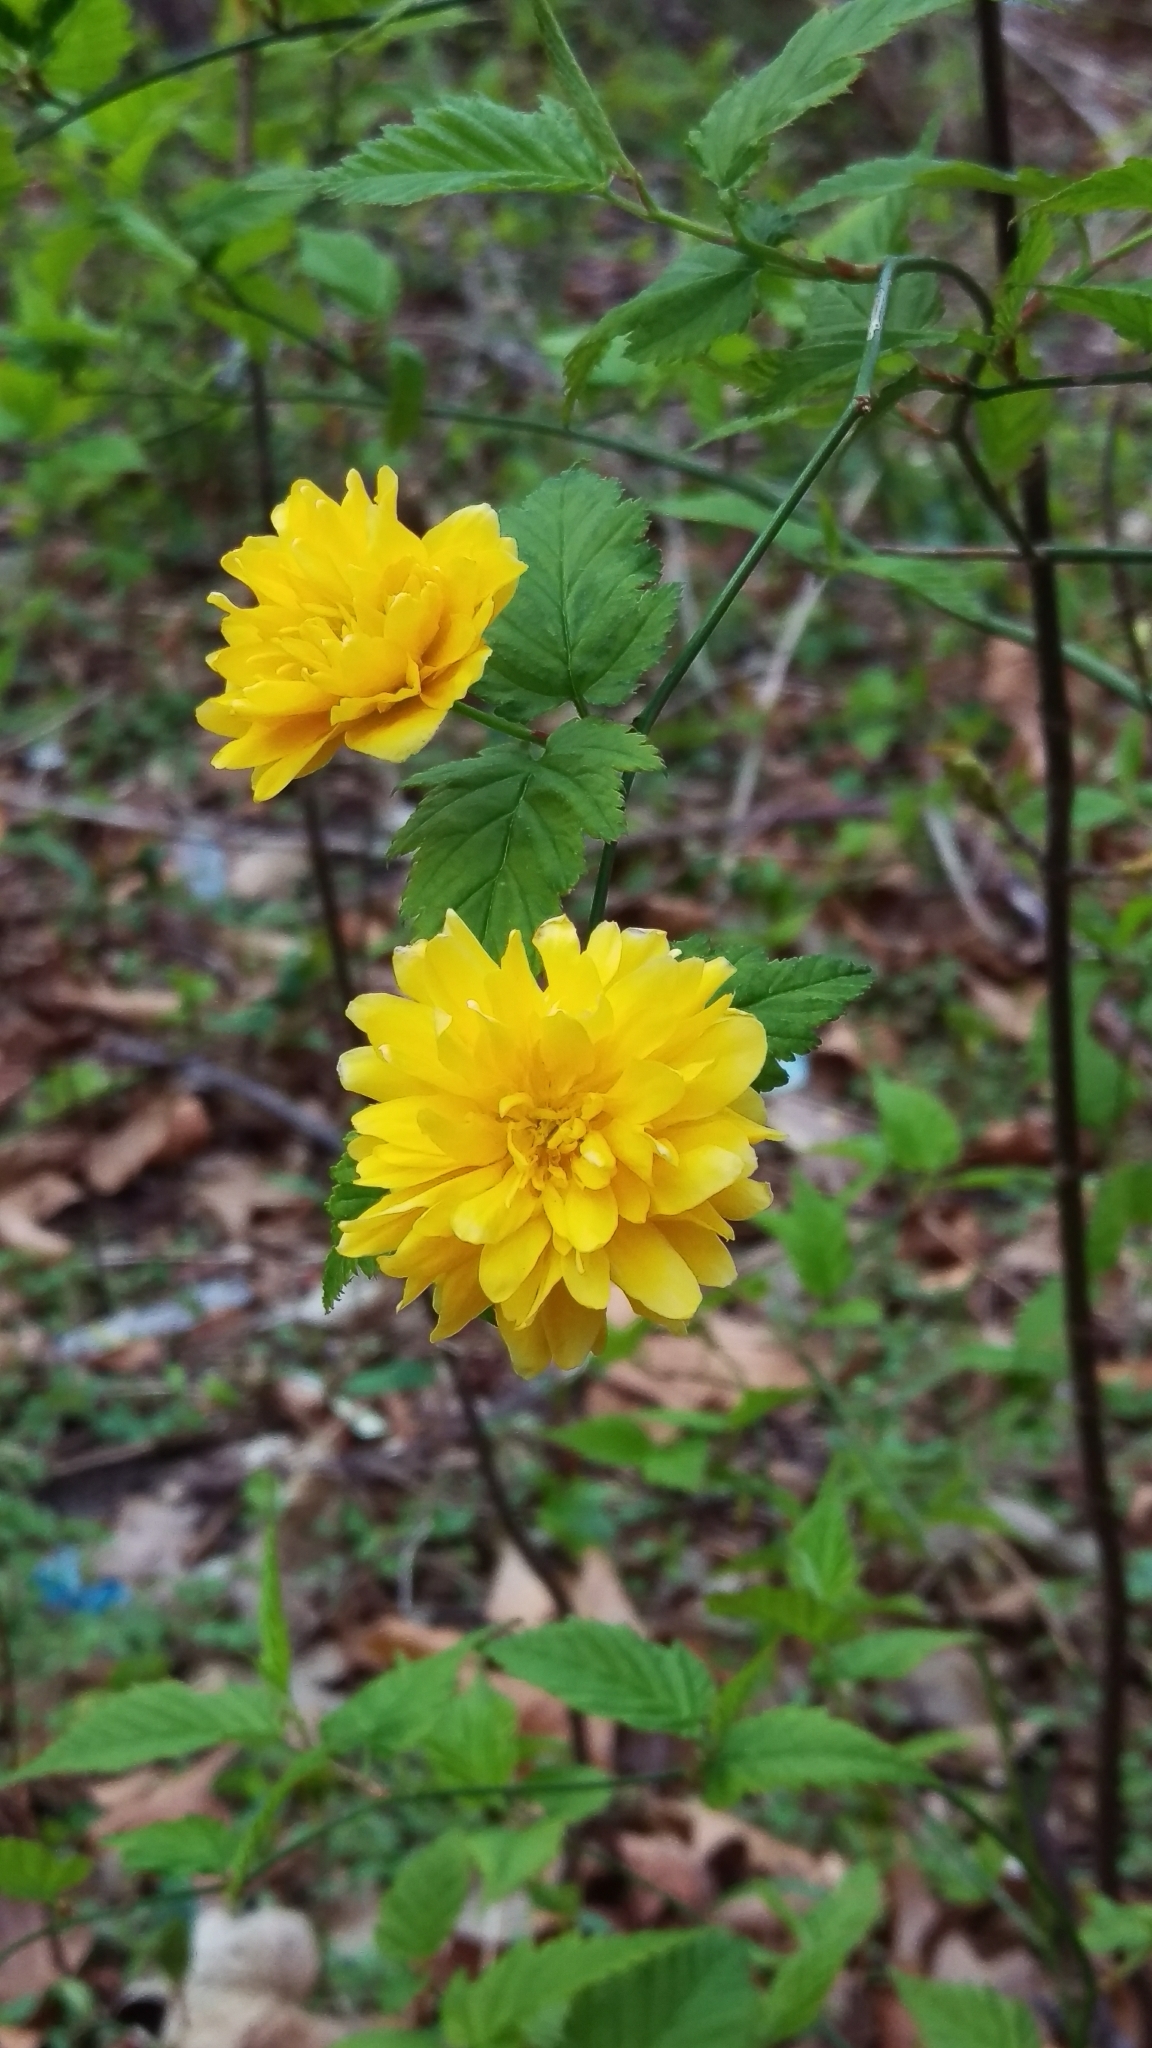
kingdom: Plantae
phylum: Tracheophyta
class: Magnoliopsida
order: Rosales
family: Rosaceae
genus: Kerria
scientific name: Kerria japonica
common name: Japanese kerria
